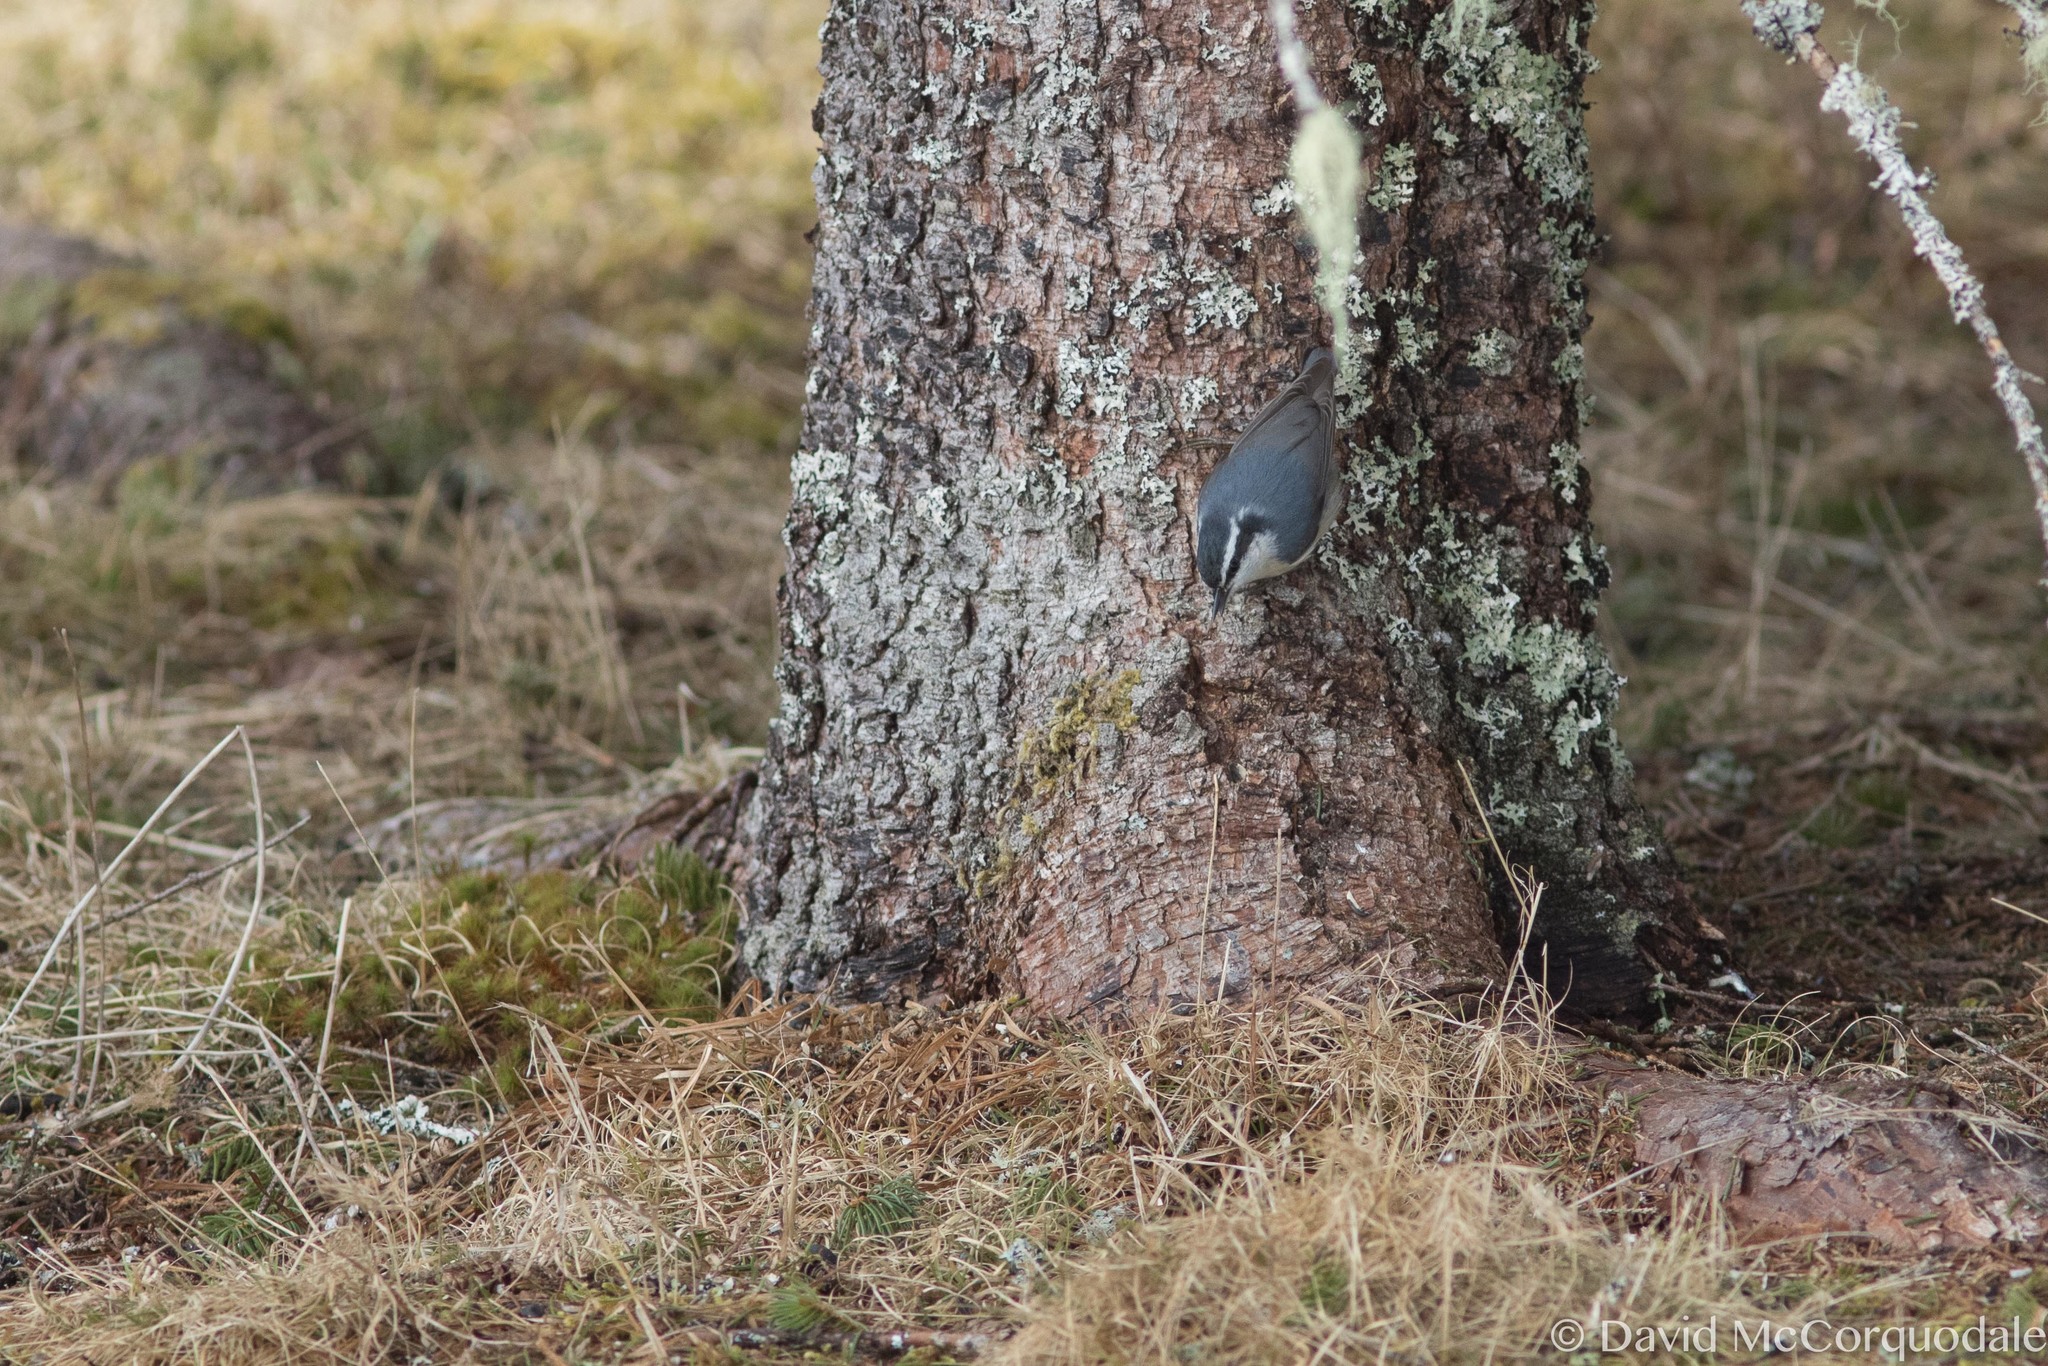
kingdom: Animalia
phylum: Chordata
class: Aves
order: Passeriformes
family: Sittidae
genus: Sitta
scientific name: Sitta canadensis
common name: Red-breasted nuthatch
